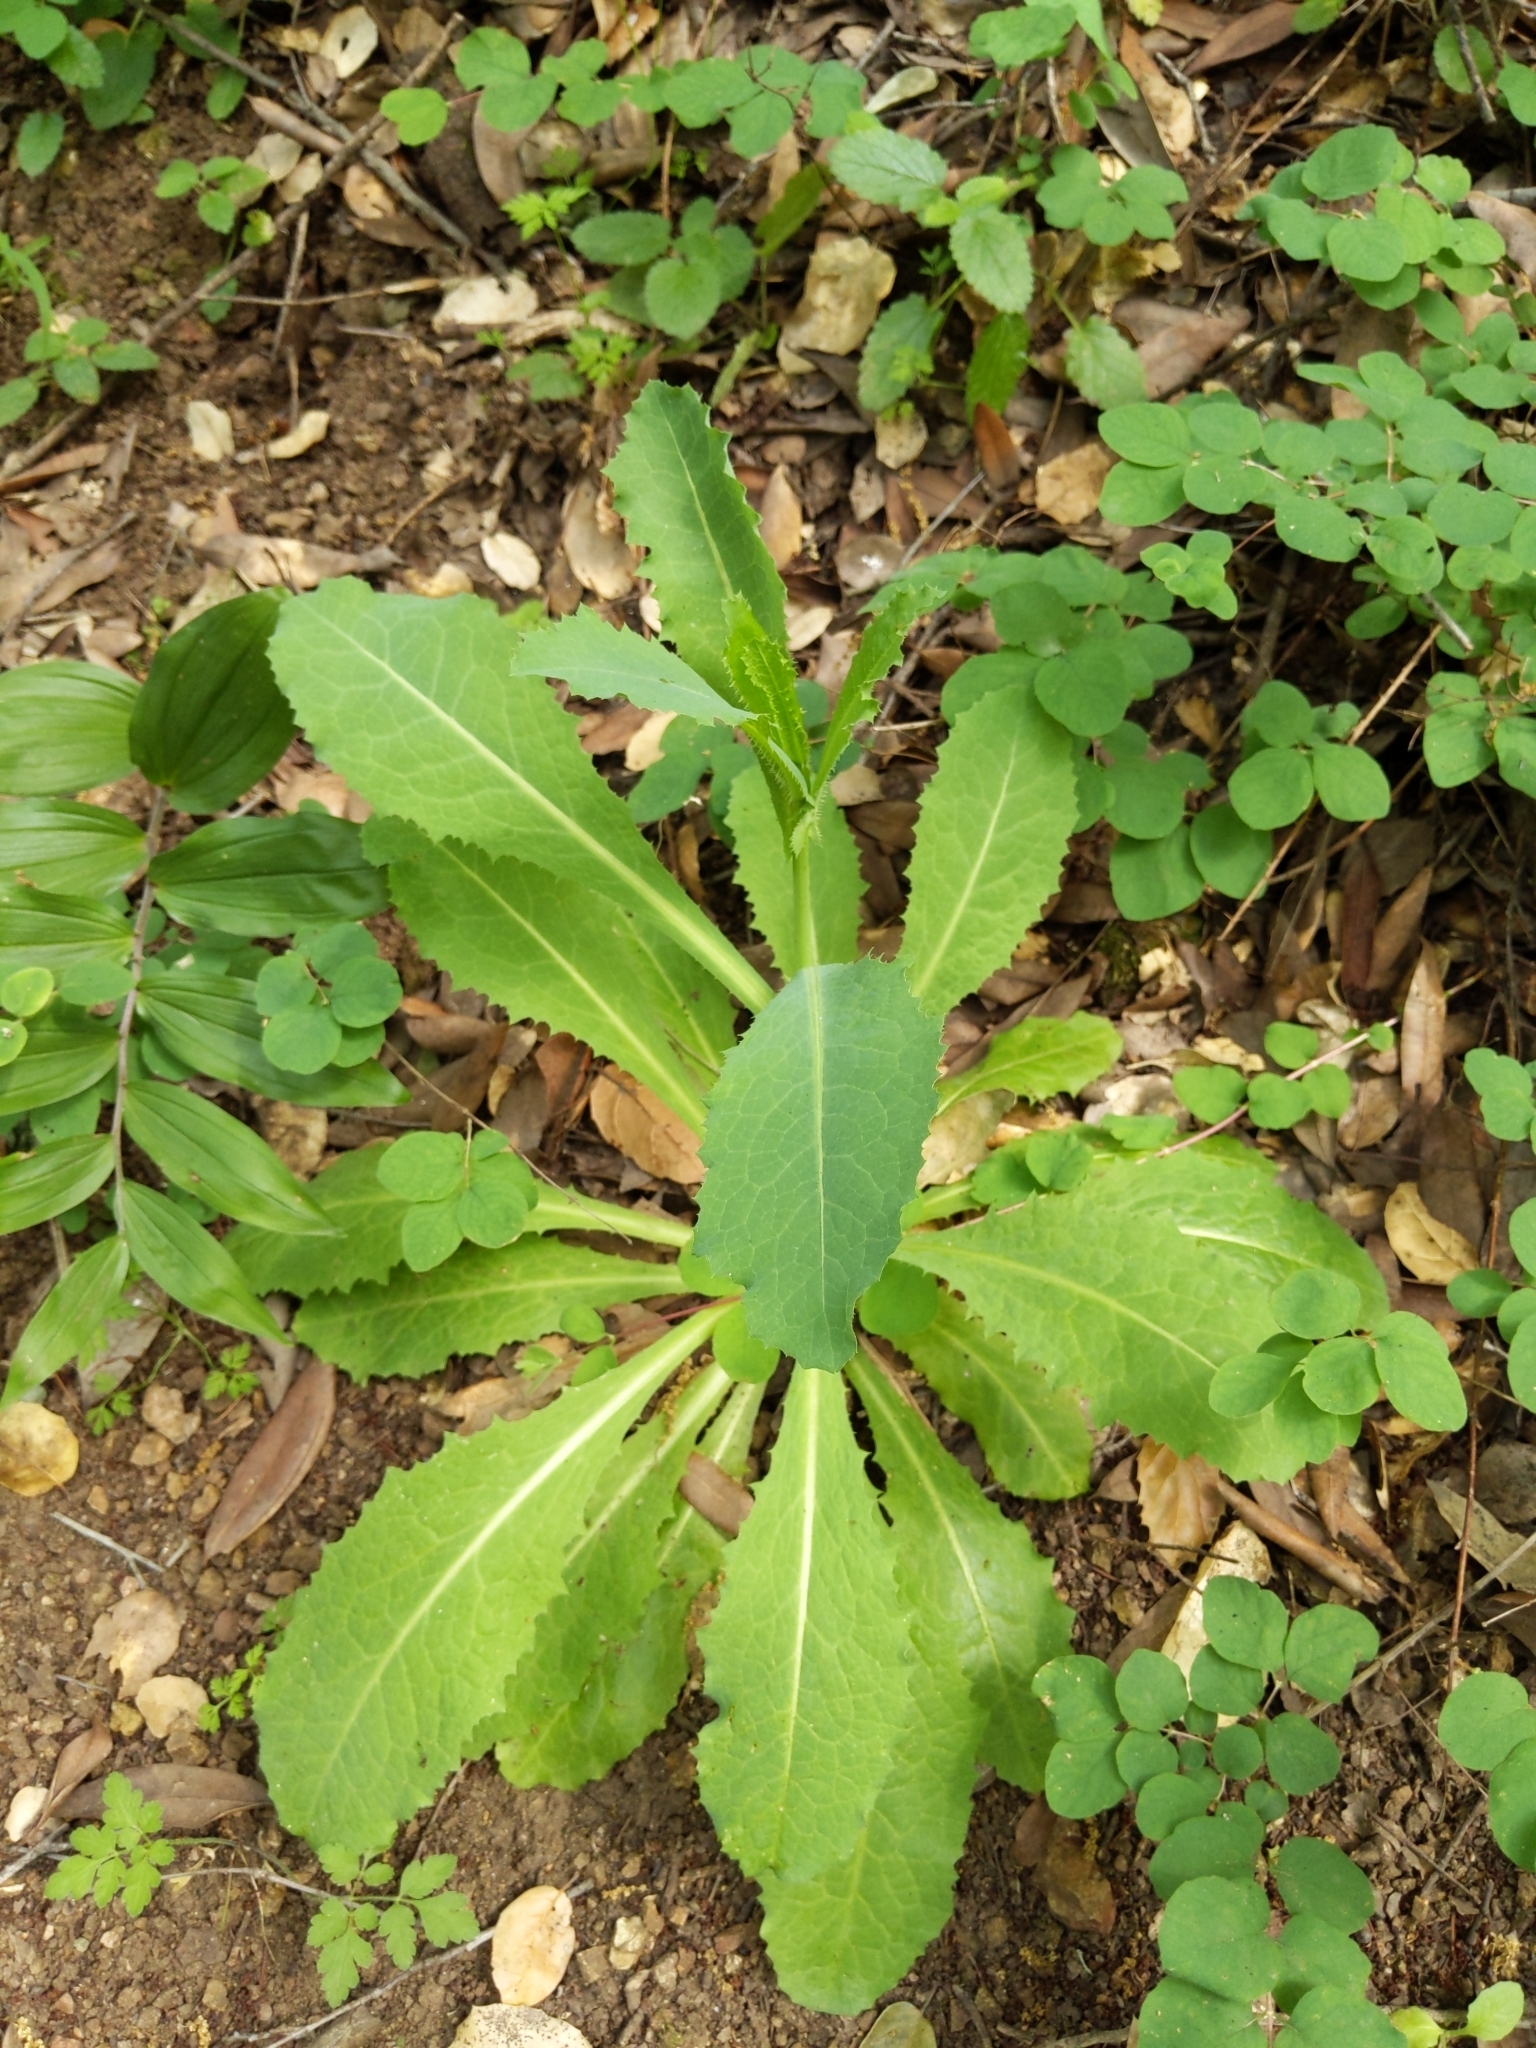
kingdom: Plantae
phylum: Tracheophyta
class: Magnoliopsida
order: Asterales
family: Asteraceae
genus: Lactuca
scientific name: Lactuca virosa
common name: Great lettuce
